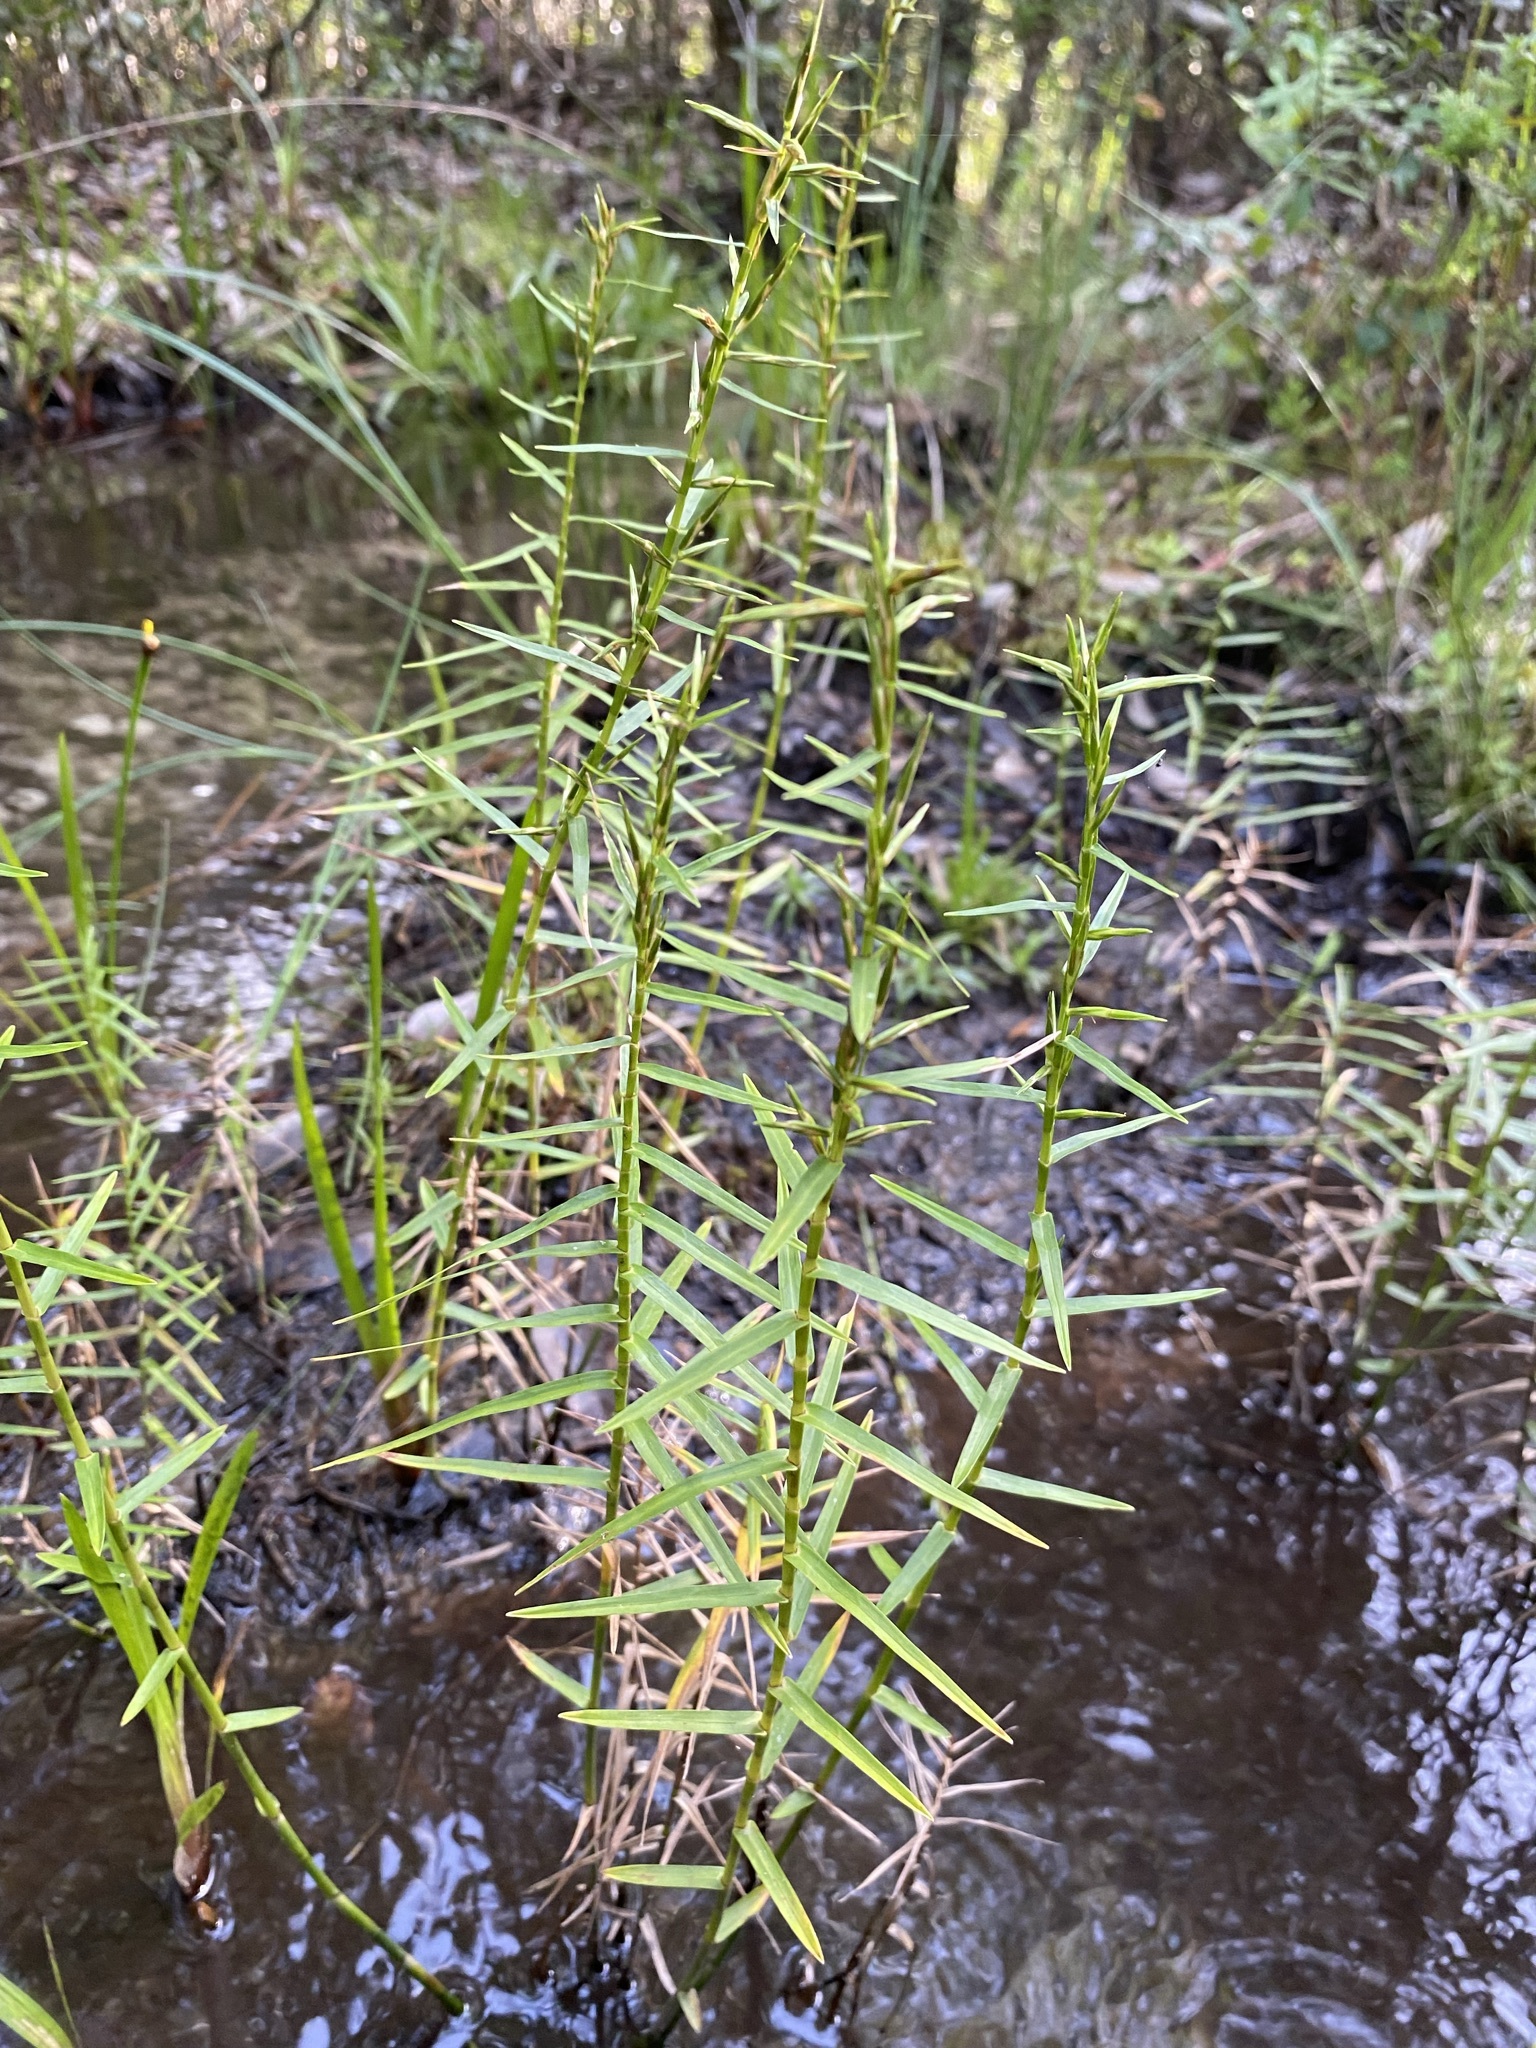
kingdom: Plantae
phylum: Tracheophyta
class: Liliopsida
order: Poales
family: Cyperaceae
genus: Dulichium
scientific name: Dulichium arundinaceum
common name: Three-way sedge
